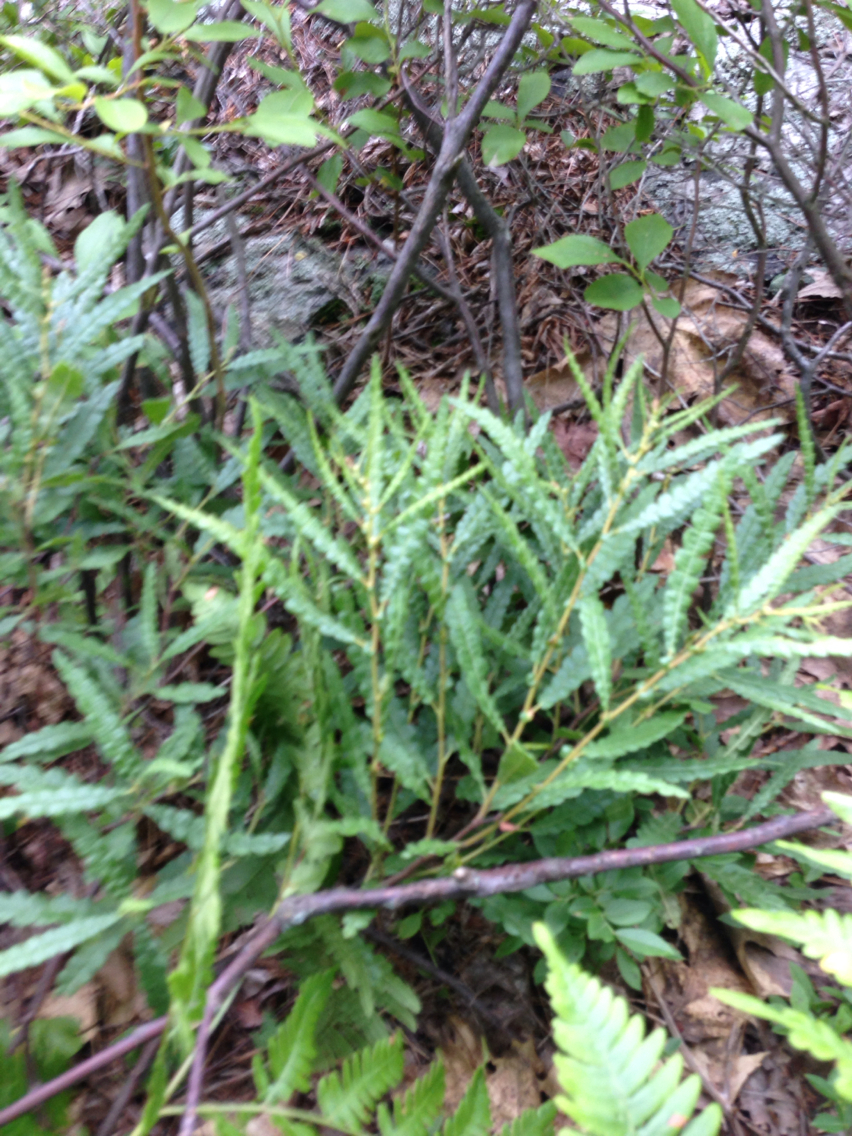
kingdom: Plantae
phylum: Tracheophyta
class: Magnoliopsida
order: Fagales
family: Myricaceae
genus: Comptonia
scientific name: Comptonia peregrina
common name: Sweet-fern
